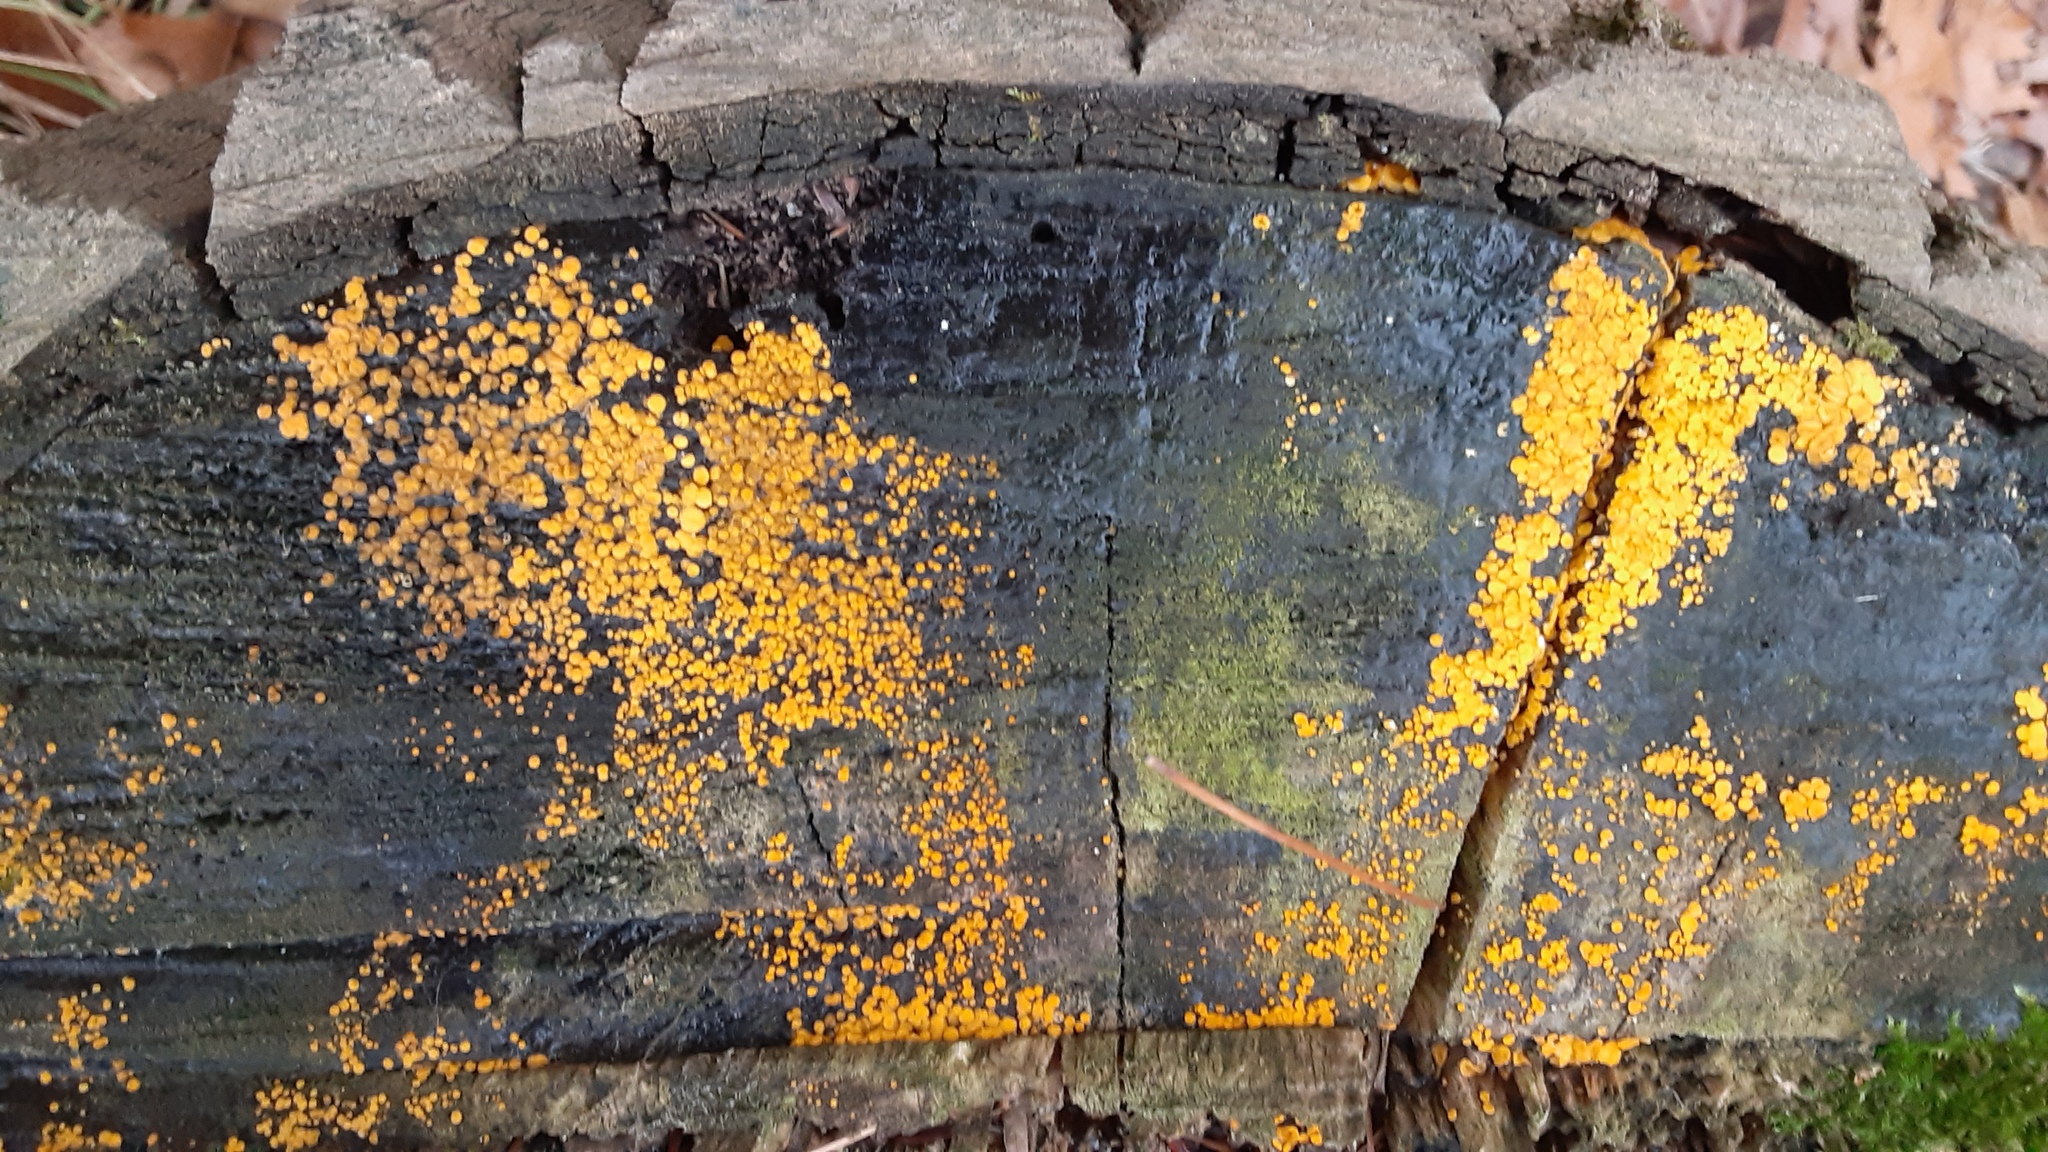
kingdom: Fungi
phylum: Ascomycota
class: Leotiomycetes
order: Helotiales
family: Pezizellaceae
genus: Calycina
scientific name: Calycina citrina
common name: Yellow fairy cups
